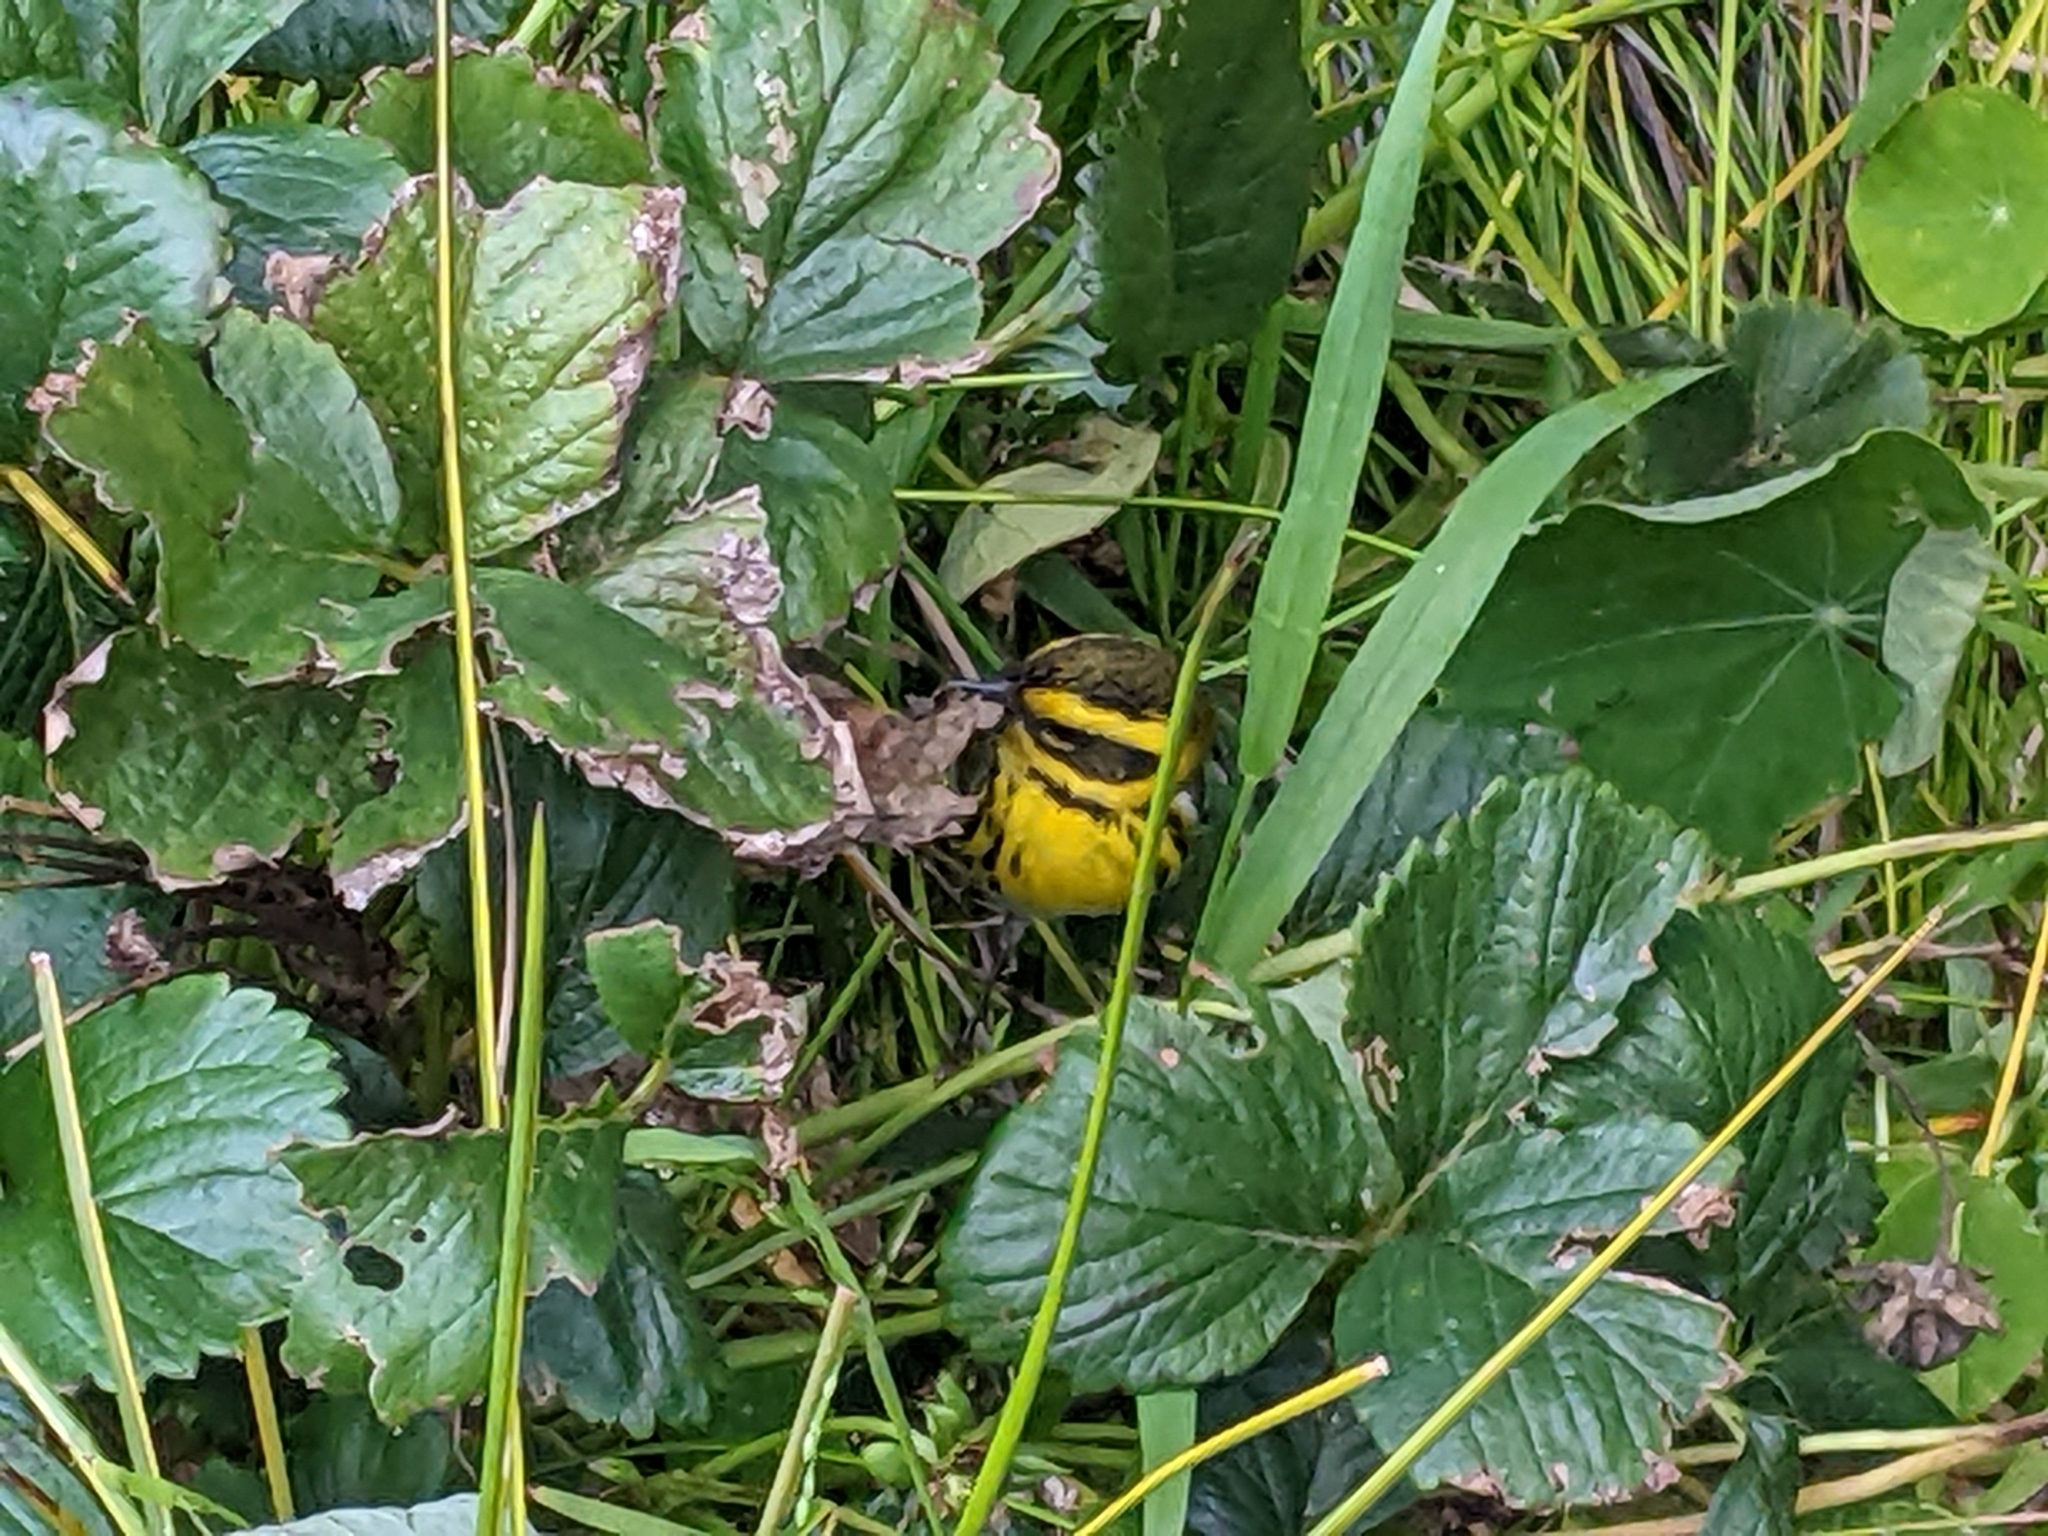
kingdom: Animalia
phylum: Chordata
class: Aves
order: Passeriformes
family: Parulidae
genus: Setophaga
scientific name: Setophaga townsendi
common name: Townsend's warbler
